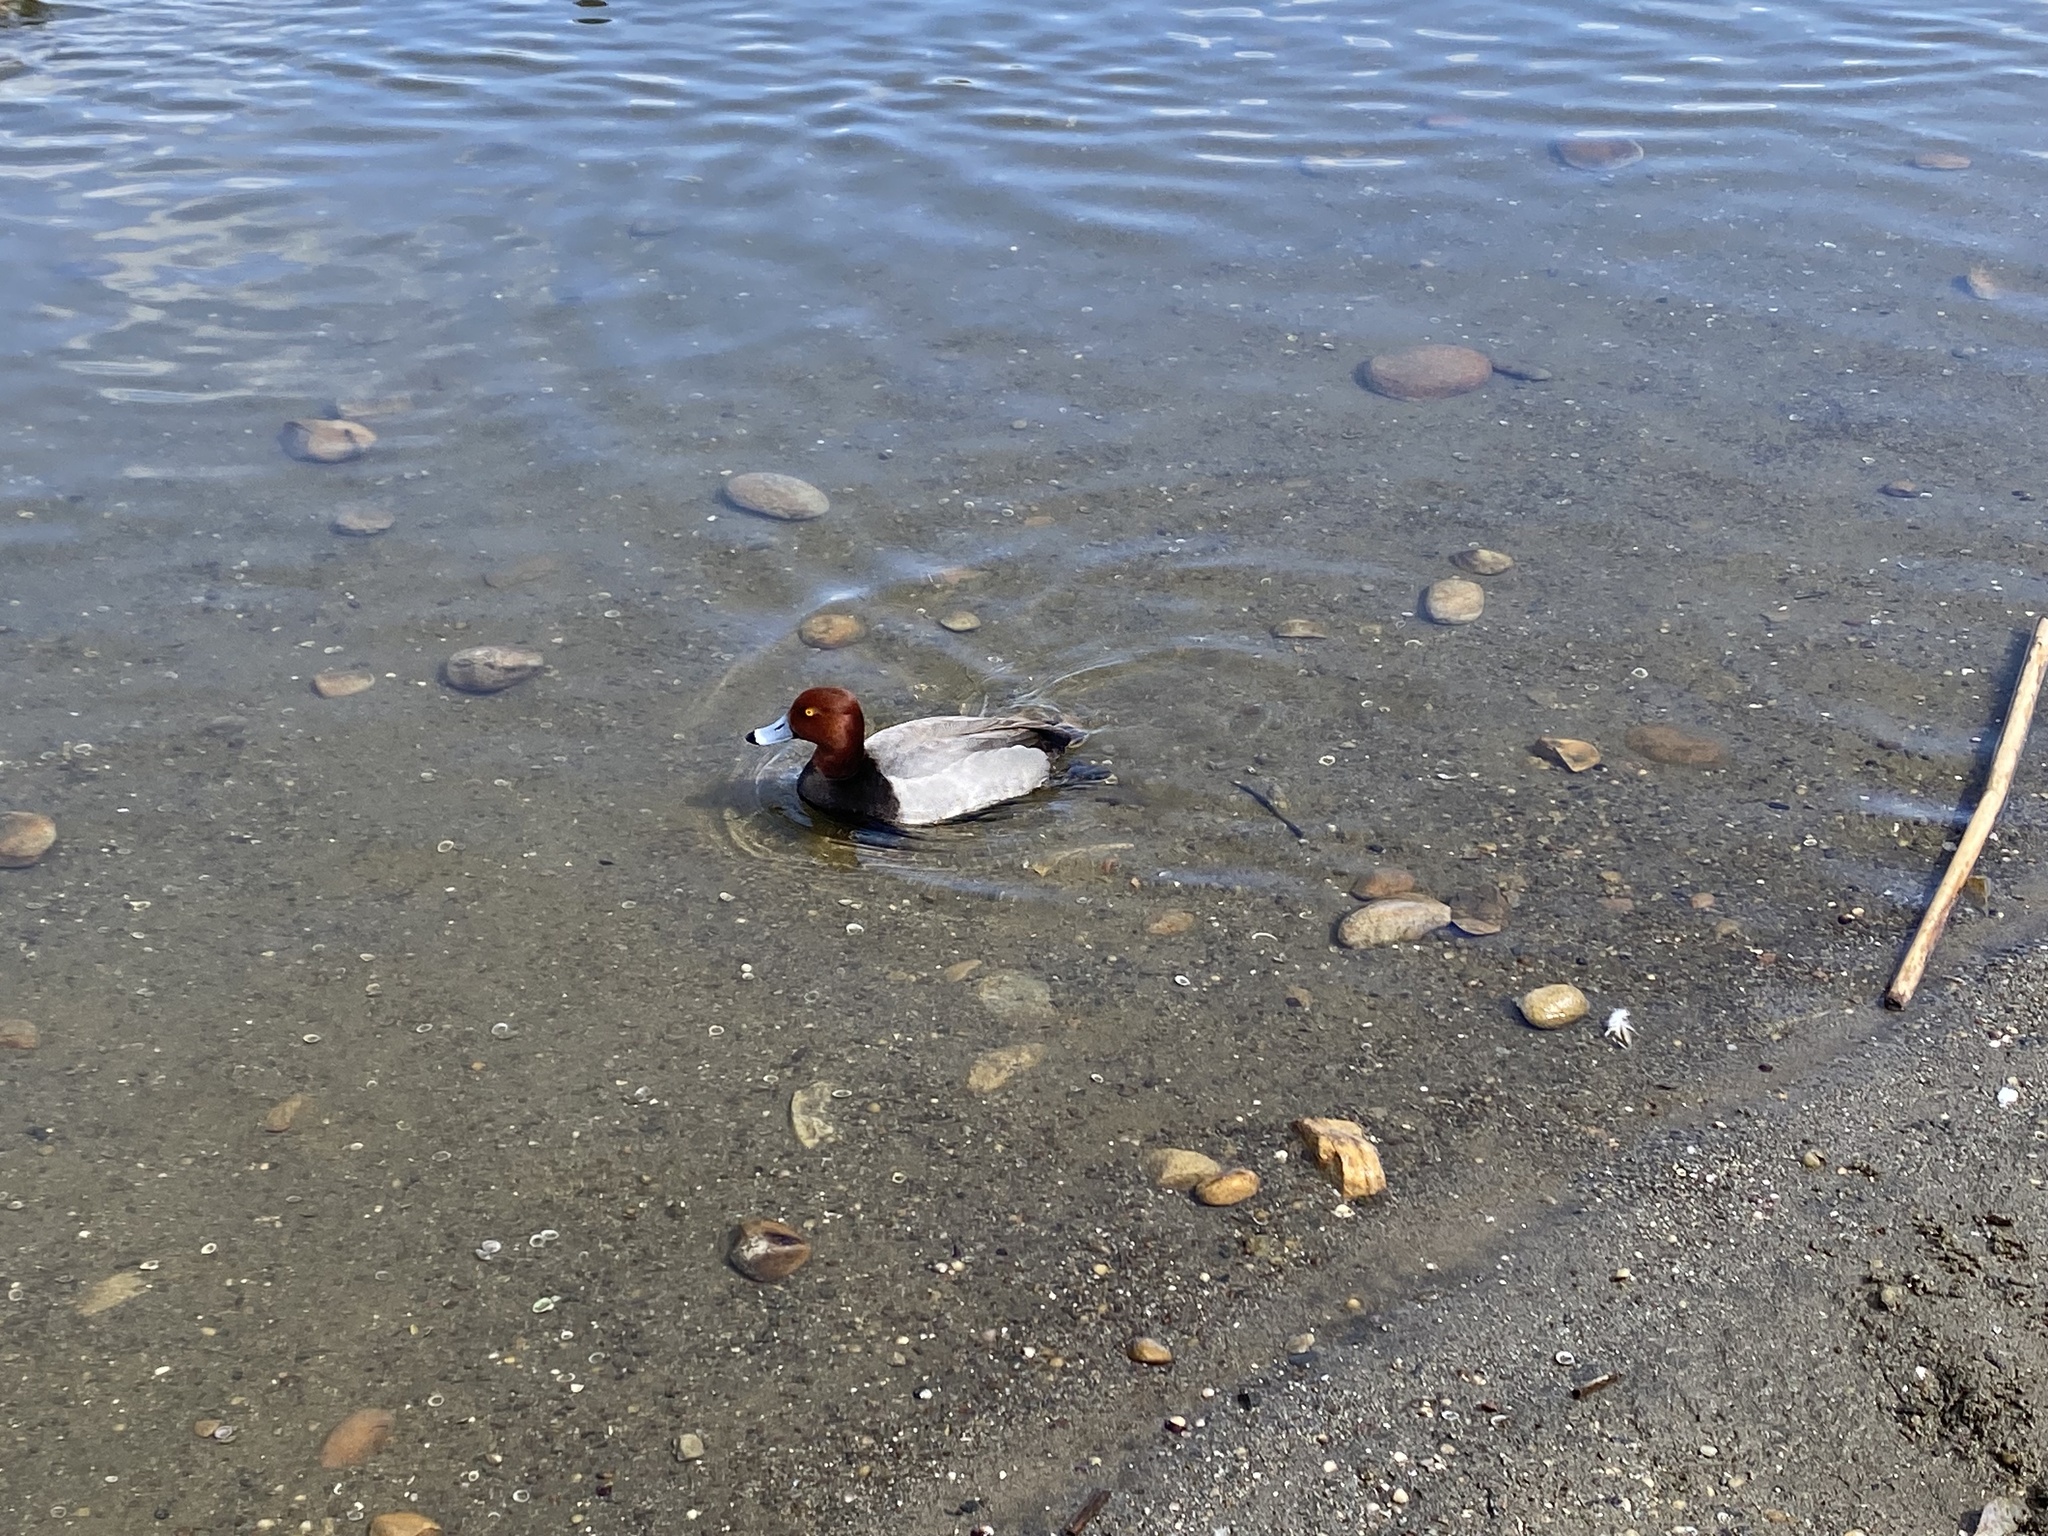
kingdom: Animalia
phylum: Chordata
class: Aves
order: Anseriformes
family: Anatidae
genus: Aythya
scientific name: Aythya americana
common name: Redhead
